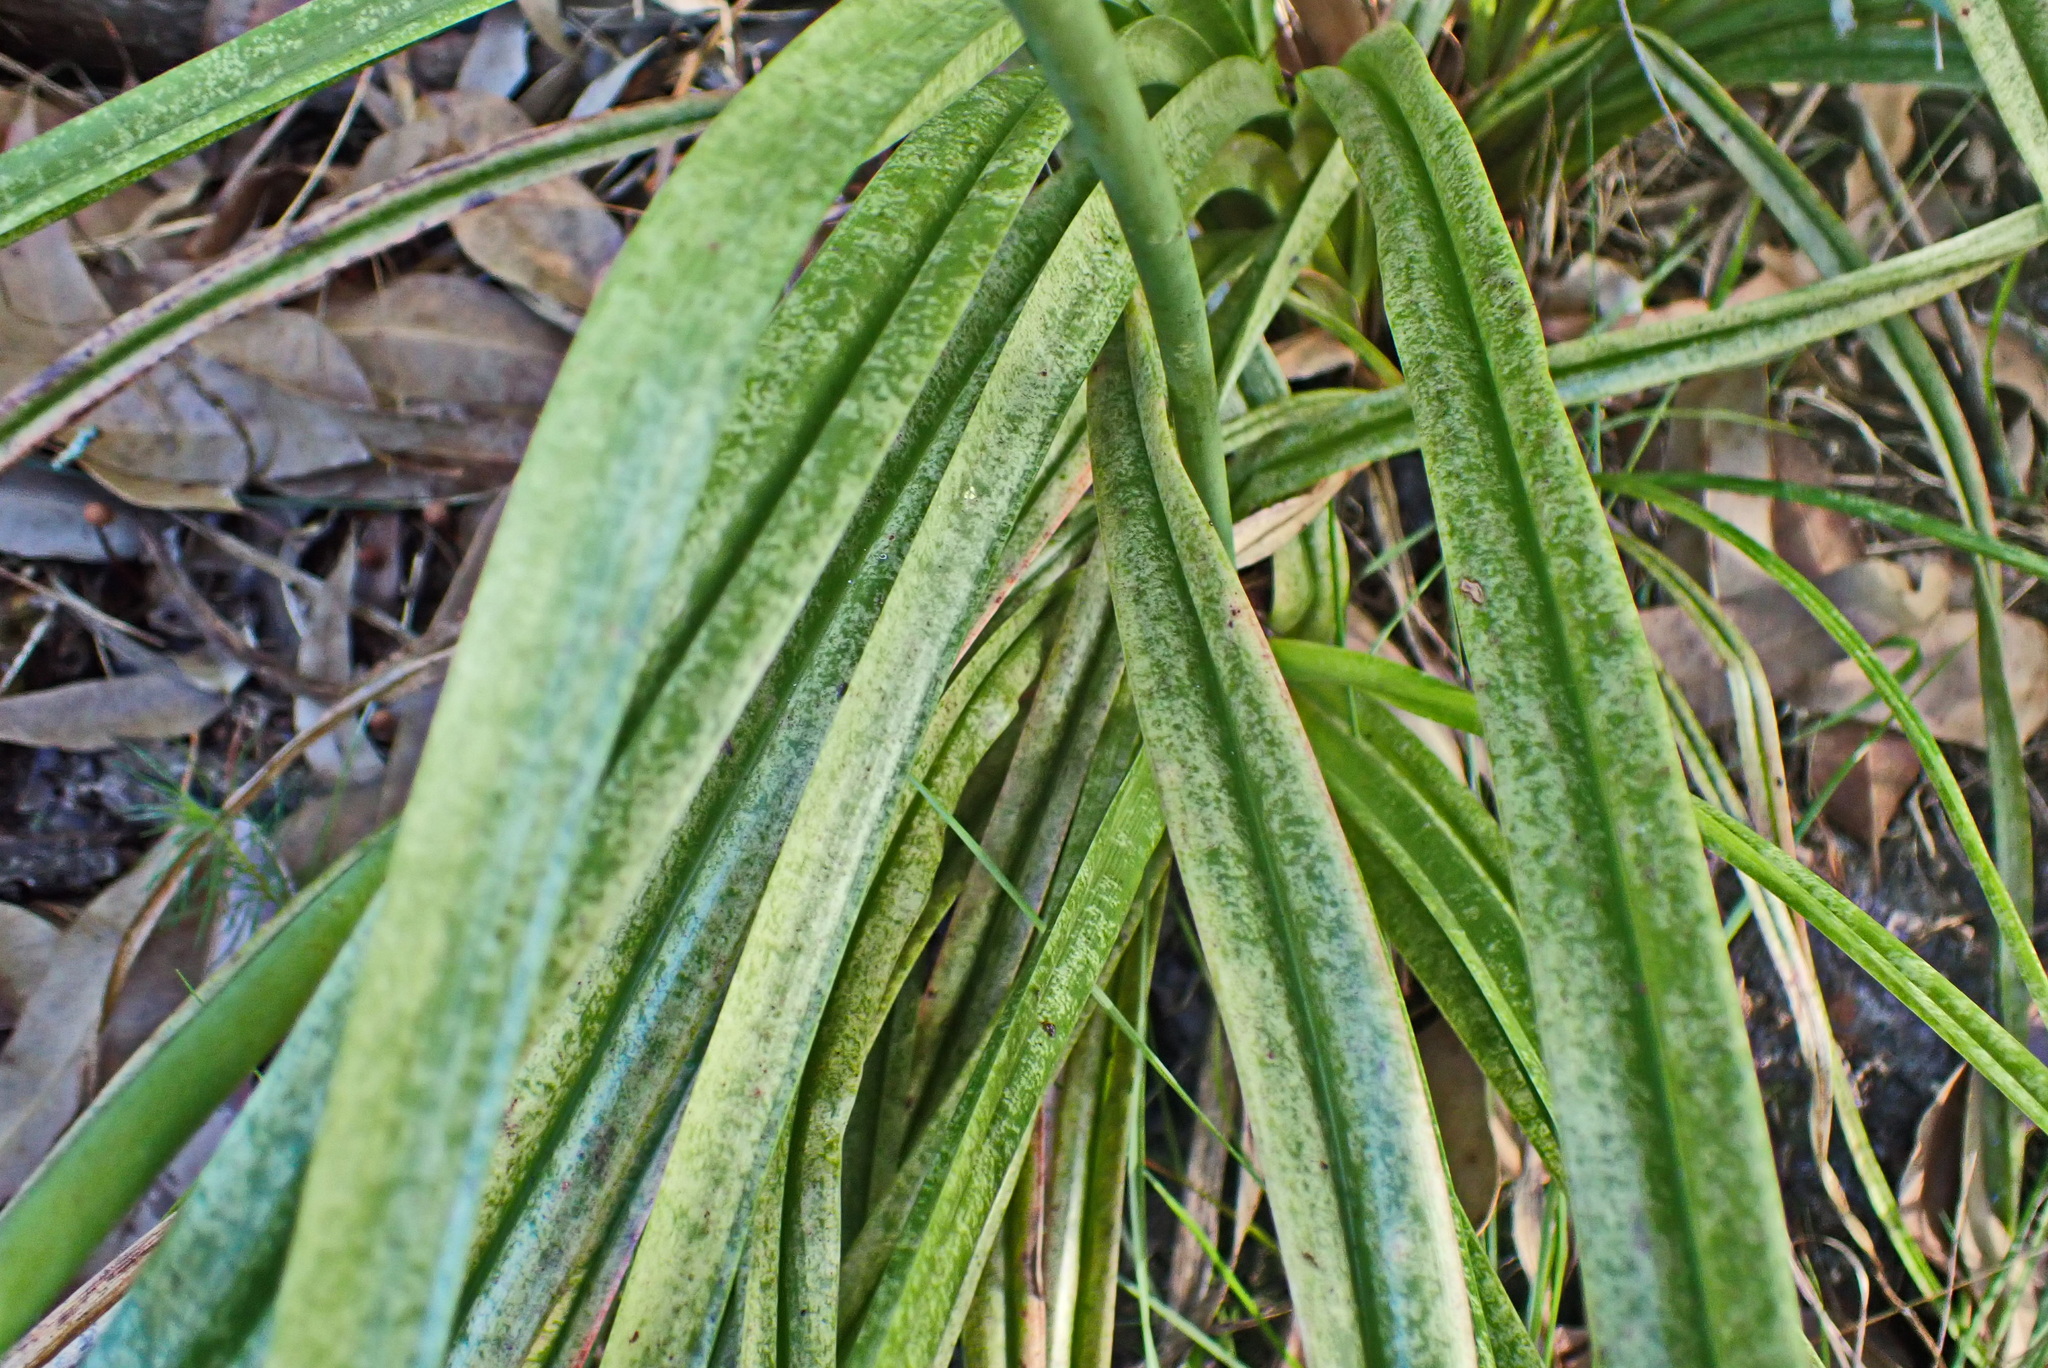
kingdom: Plantae
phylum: Tracheophyta
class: Liliopsida
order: Asparagales
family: Asphodelaceae
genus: Kniphofia
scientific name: Kniphofia uvaria
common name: Red-hot-poker
